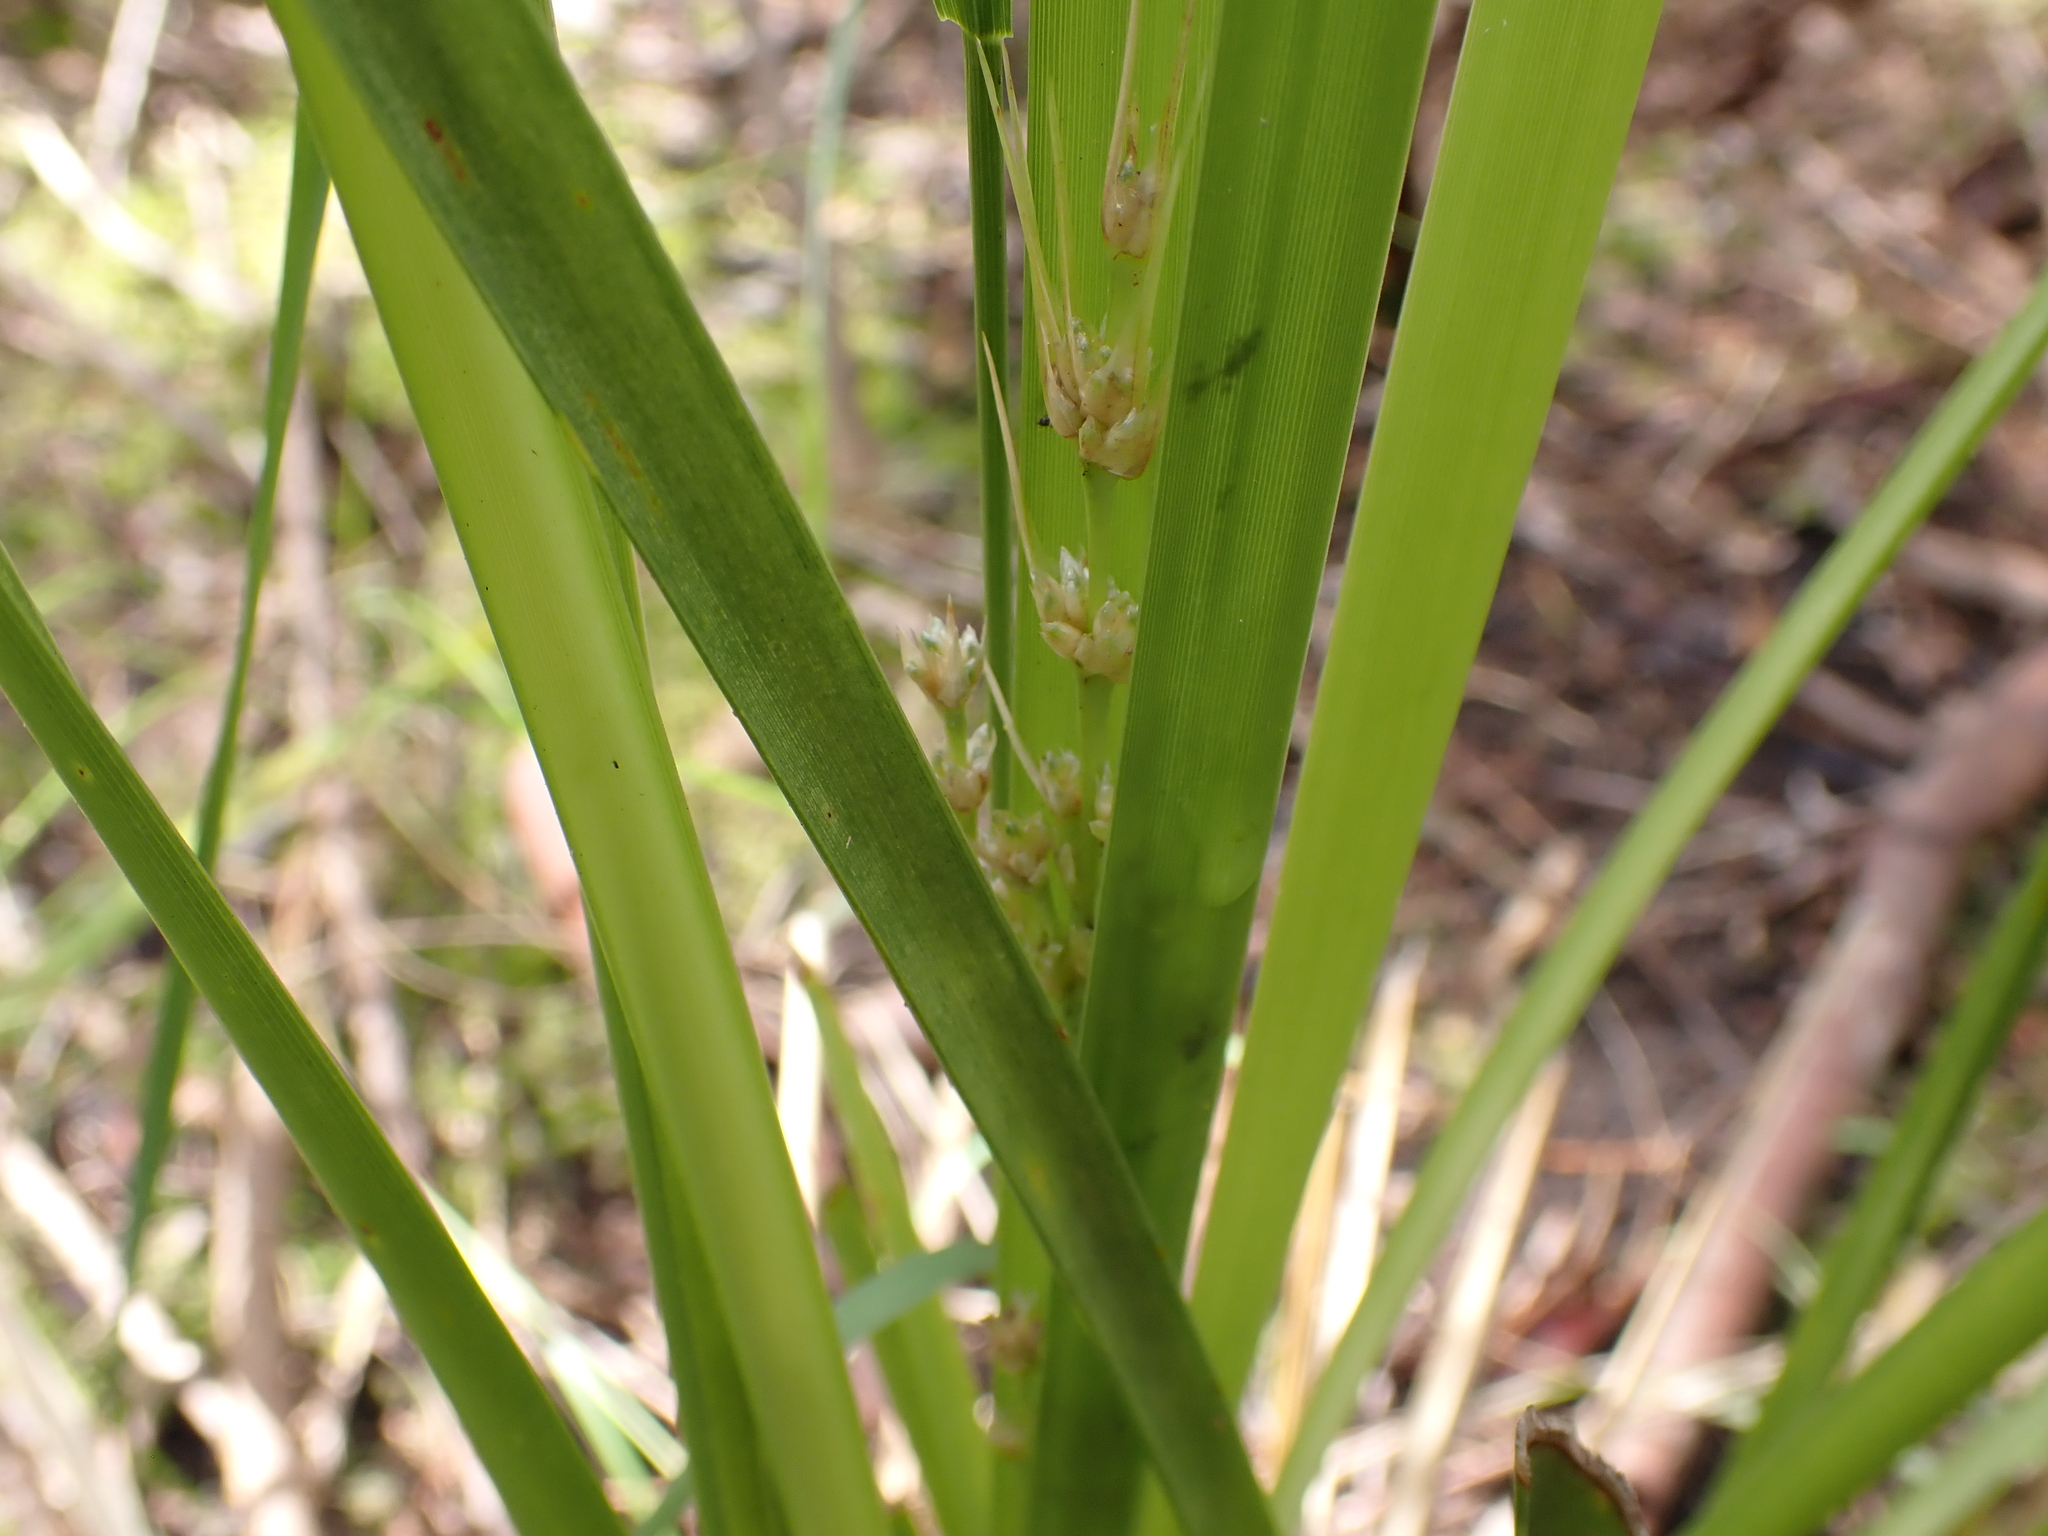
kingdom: Plantae
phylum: Tracheophyta
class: Liliopsida
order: Asparagales
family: Asparagaceae
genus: Lomandra
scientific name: Lomandra longifolia
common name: Longleaf mat-rush
